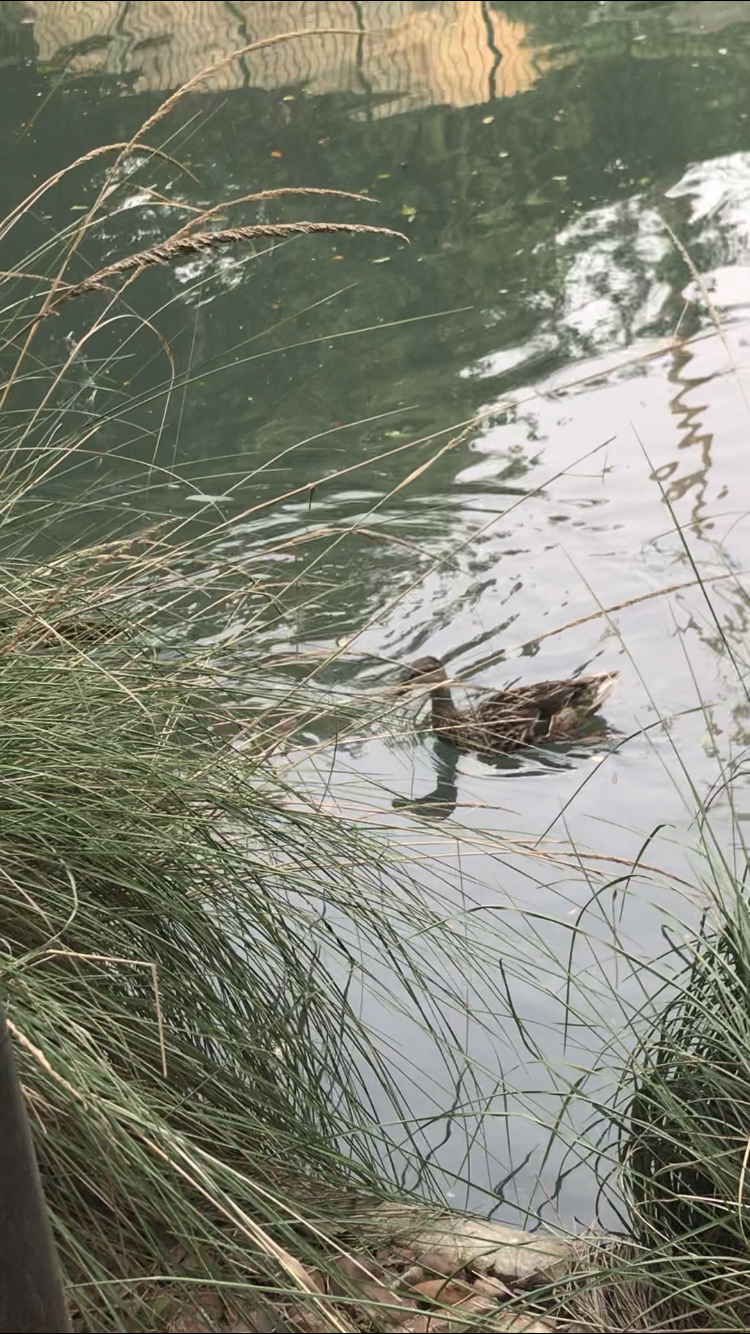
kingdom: Animalia
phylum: Chordata
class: Aves
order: Anseriformes
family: Anatidae
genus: Anas
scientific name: Anas platyrhynchos
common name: Mallard
